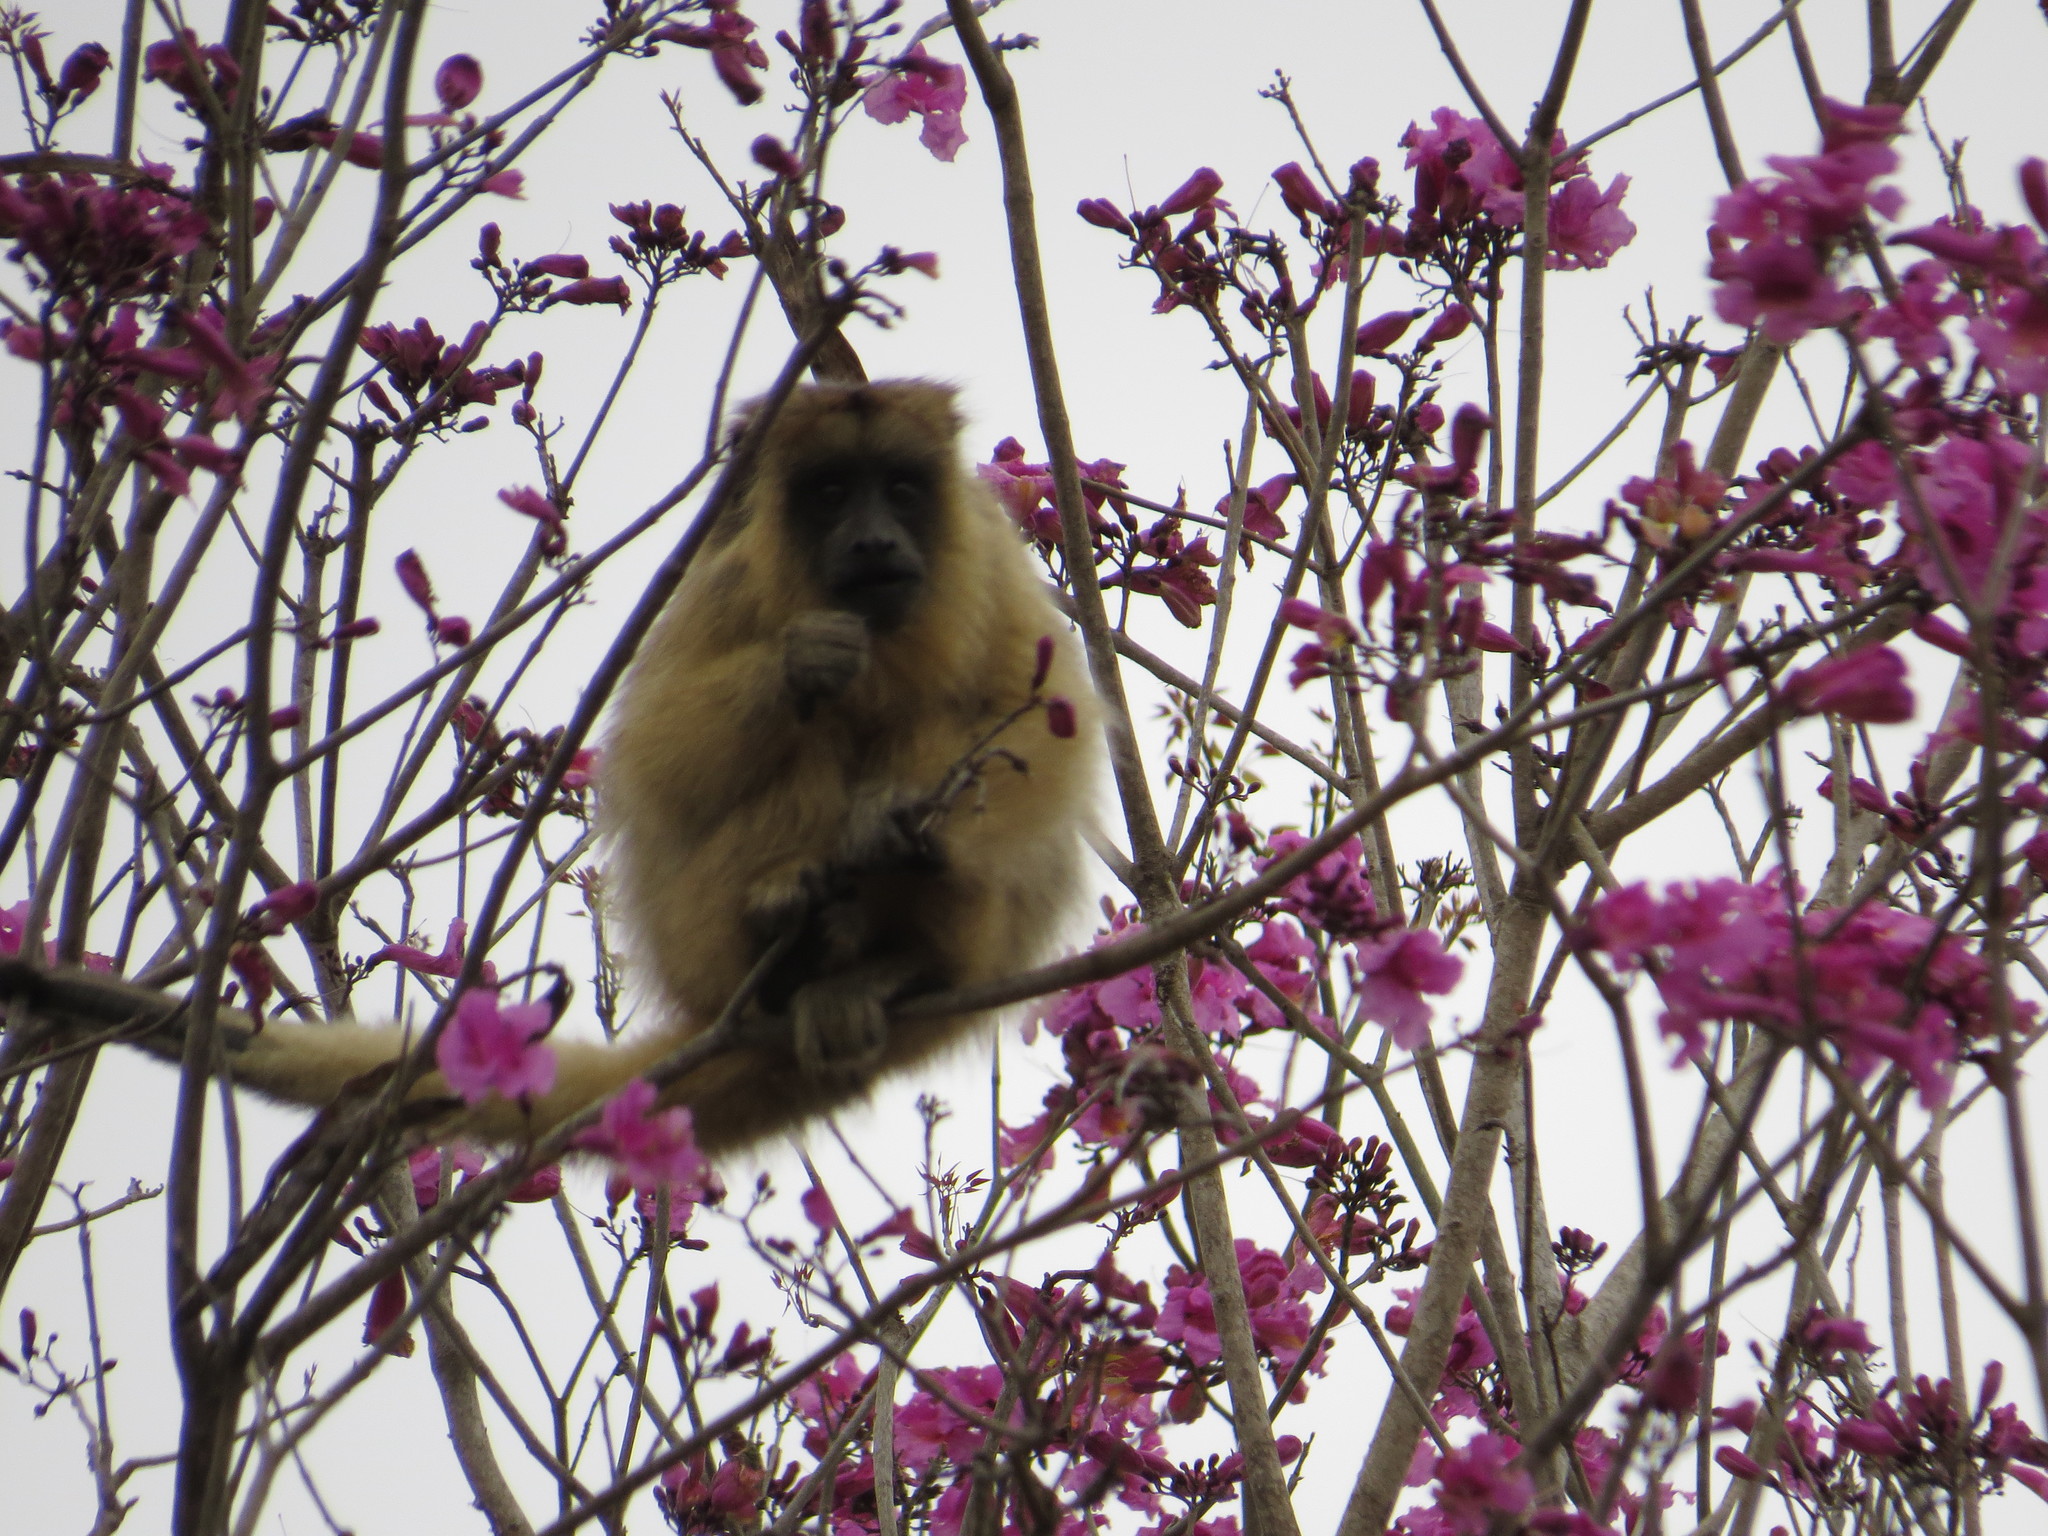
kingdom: Animalia
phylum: Chordata
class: Mammalia
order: Primates
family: Atelidae
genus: Alouatta
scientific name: Alouatta caraya
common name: Black howler
